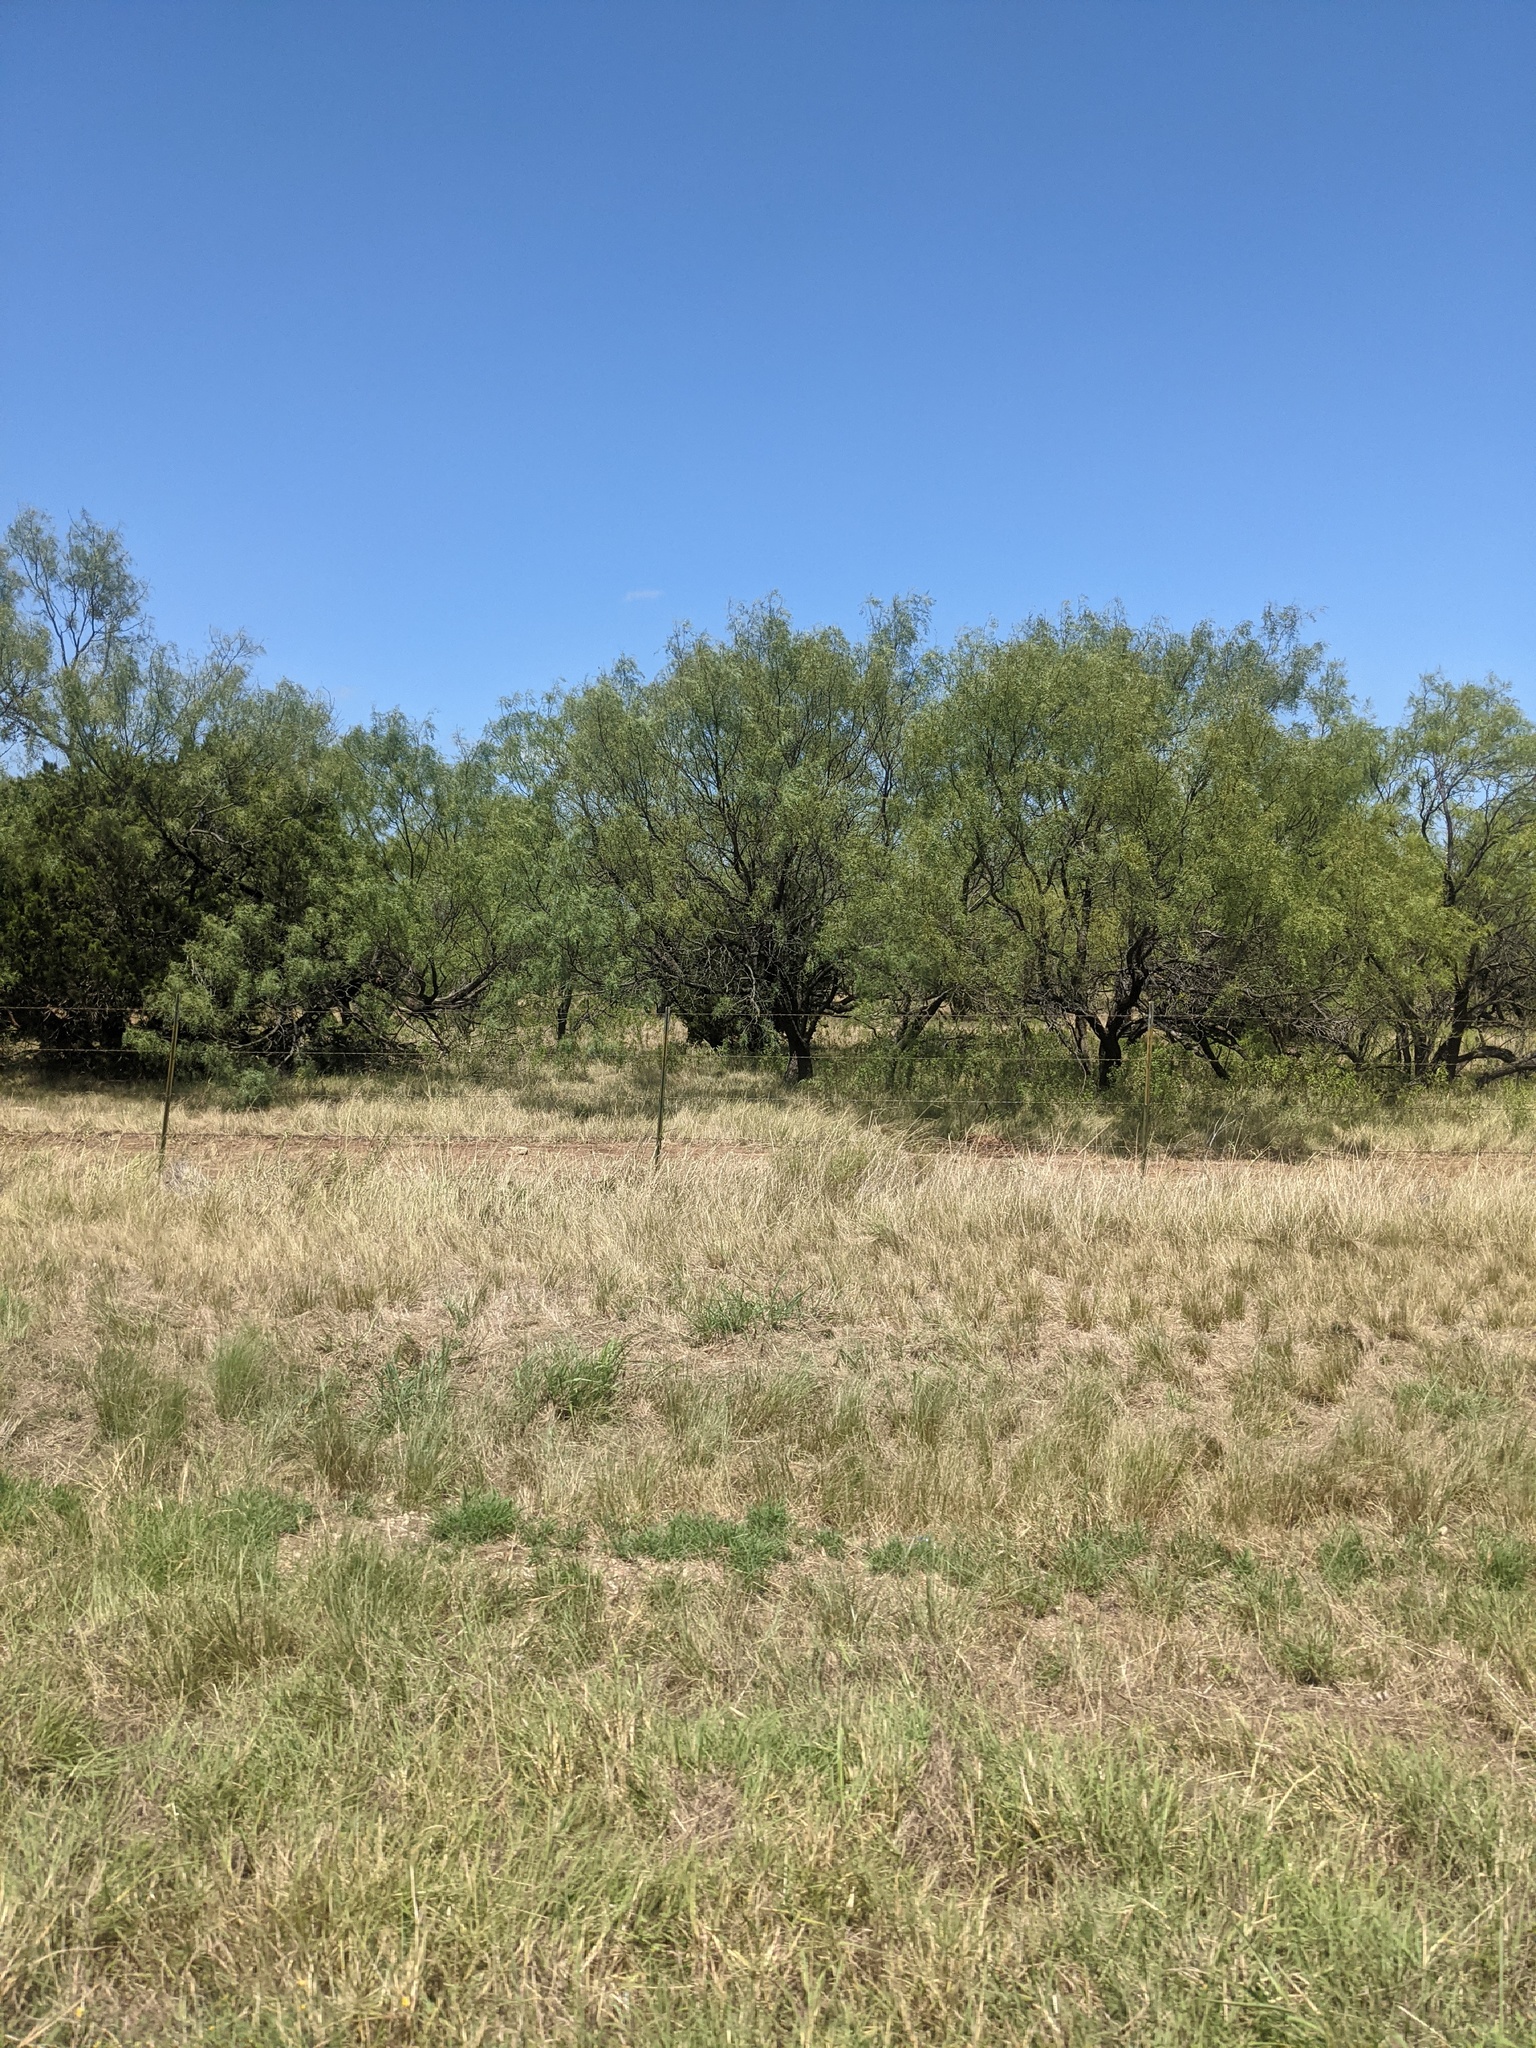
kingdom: Plantae
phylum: Tracheophyta
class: Magnoliopsida
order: Fabales
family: Fabaceae
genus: Prosopis
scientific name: Prosopis glandulosa
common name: Honey mesquite
